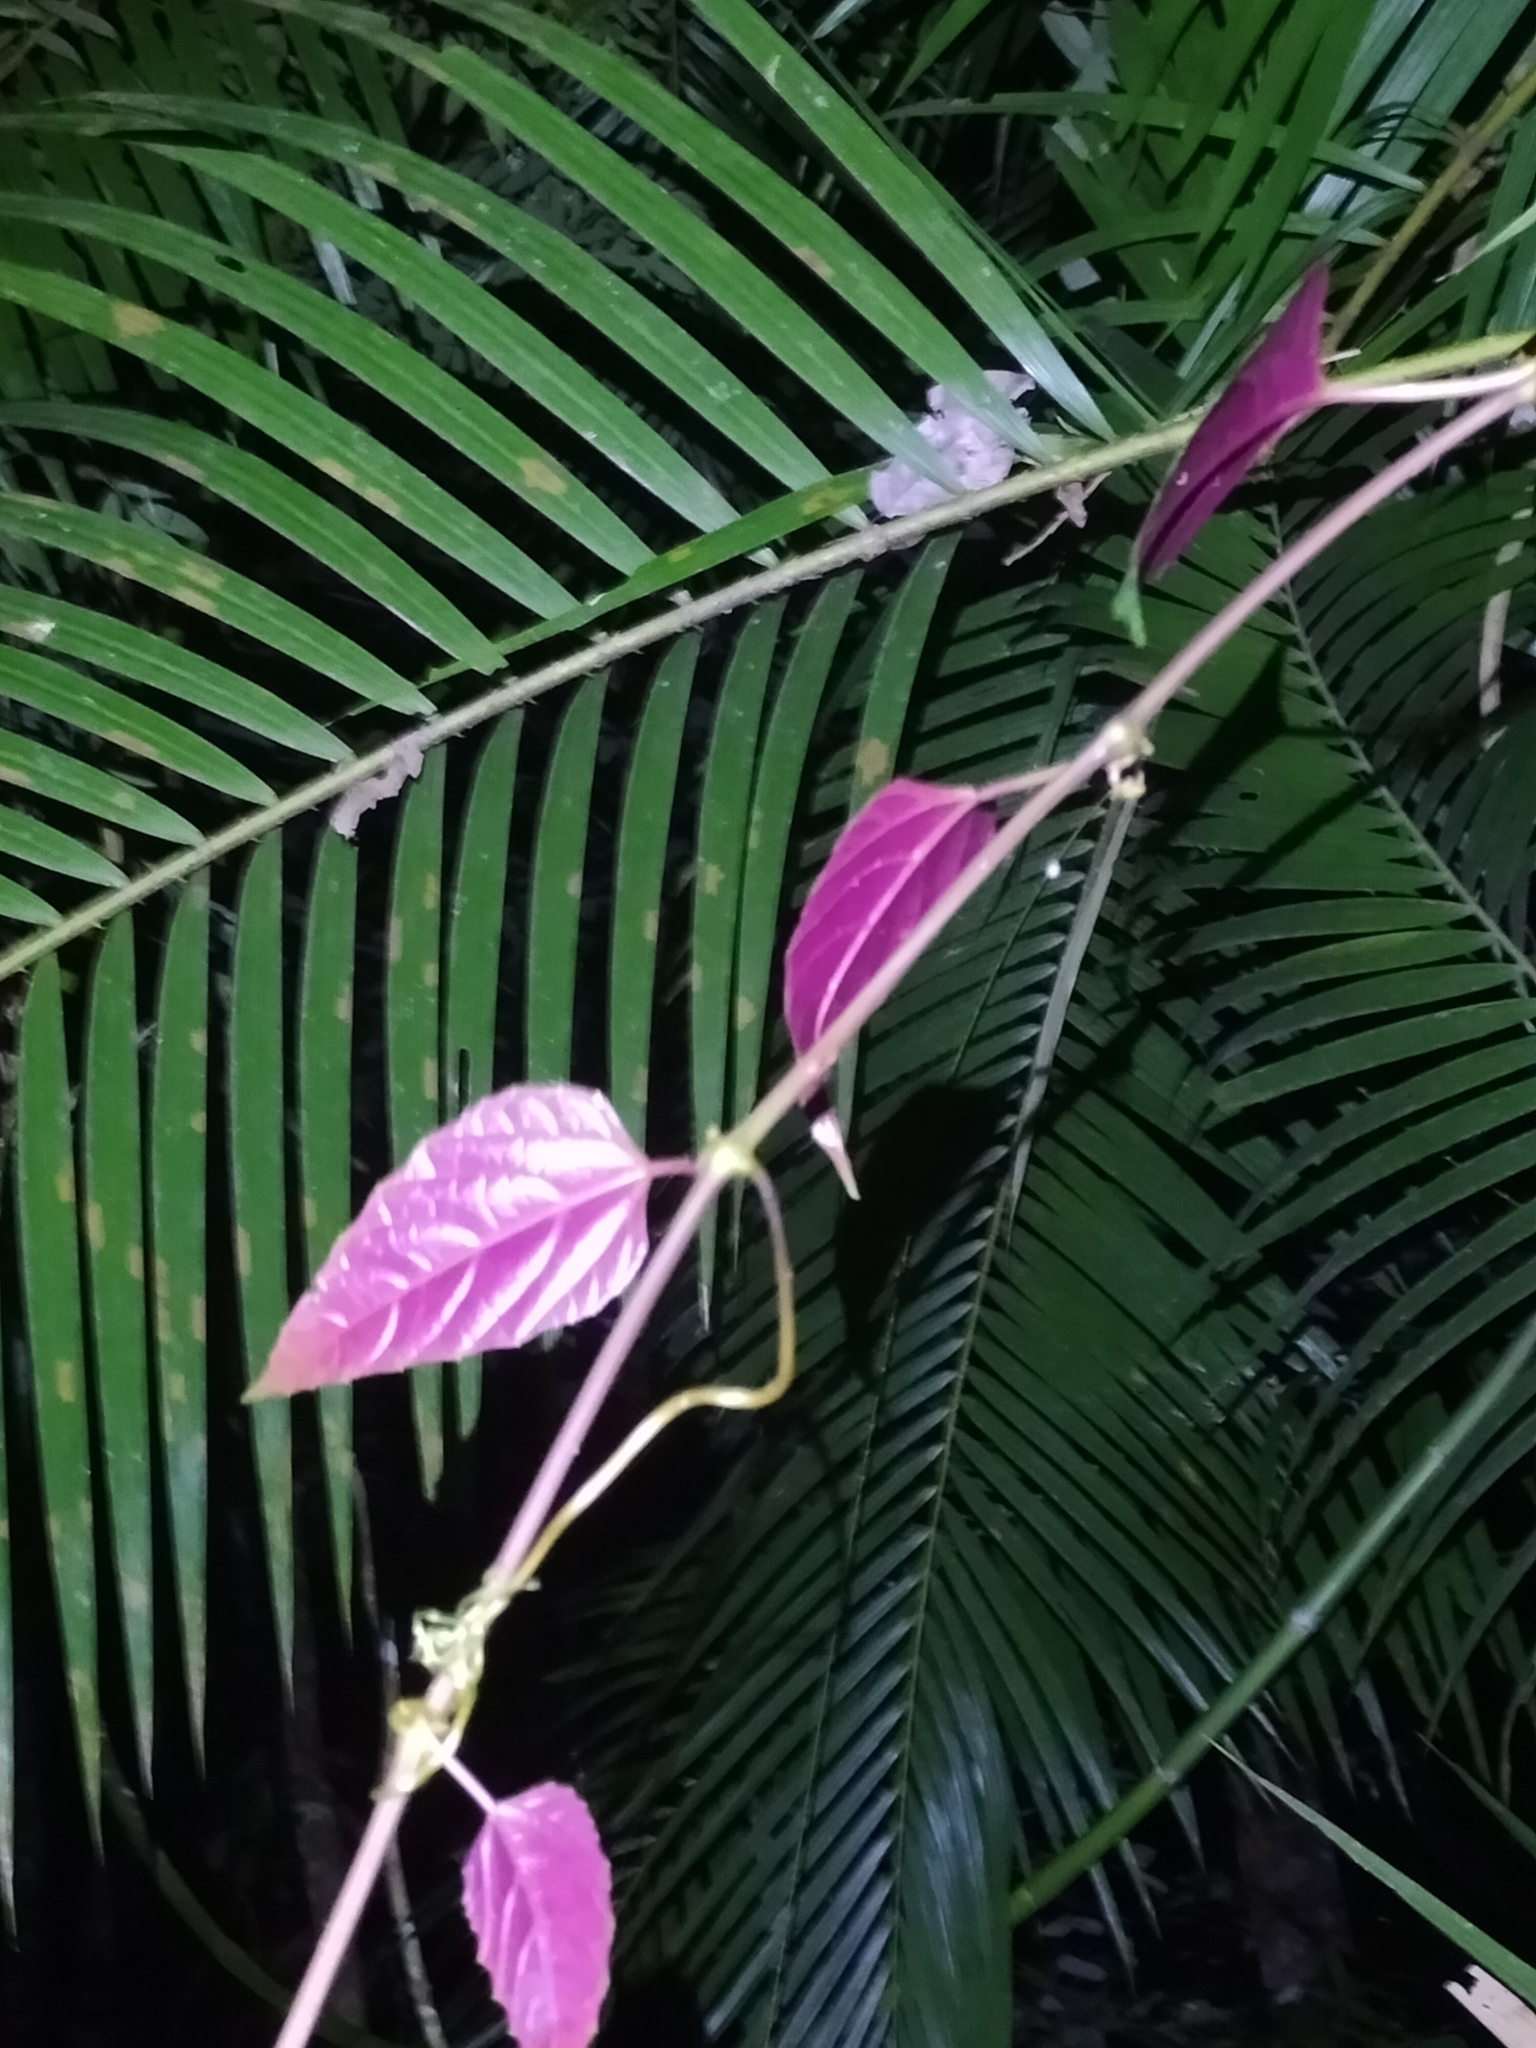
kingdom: Plantae
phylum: Tracheophyta
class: Magnoliopsida
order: Vitales
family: Vitaceae
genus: Cissus
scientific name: Cissus repens
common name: Cissus
